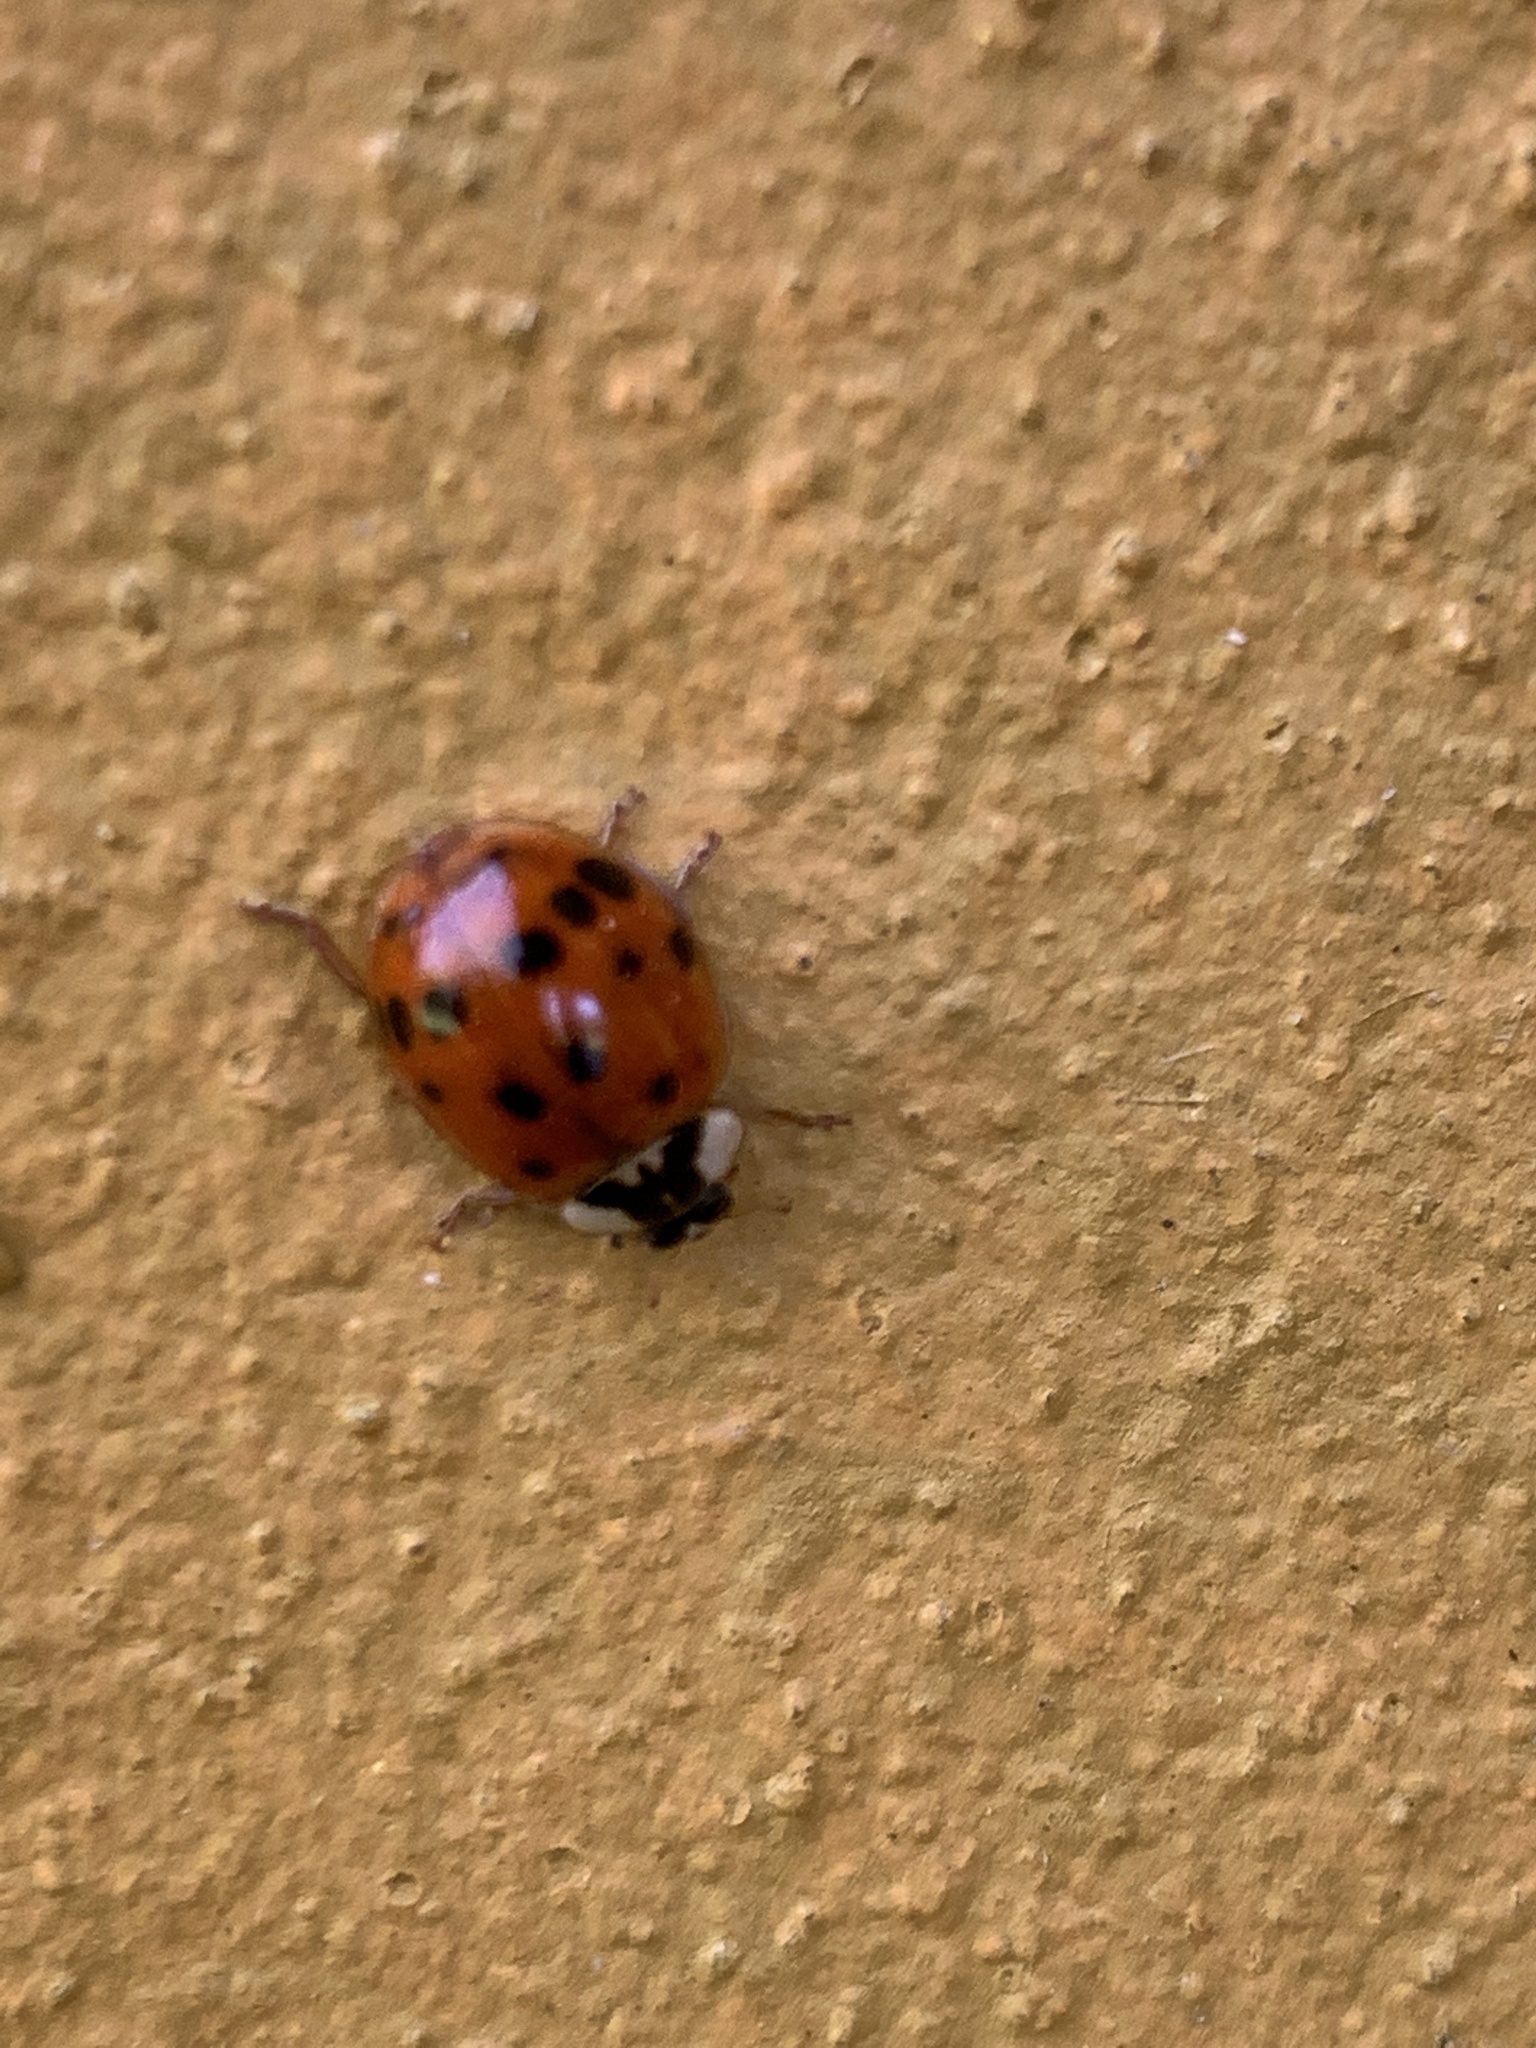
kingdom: Animalia
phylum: Arthropoda
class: Insecta
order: Coleoptera
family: Coccinellidae
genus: Harmonia
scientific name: Harmonia axyridis
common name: Harlequin ladybird
